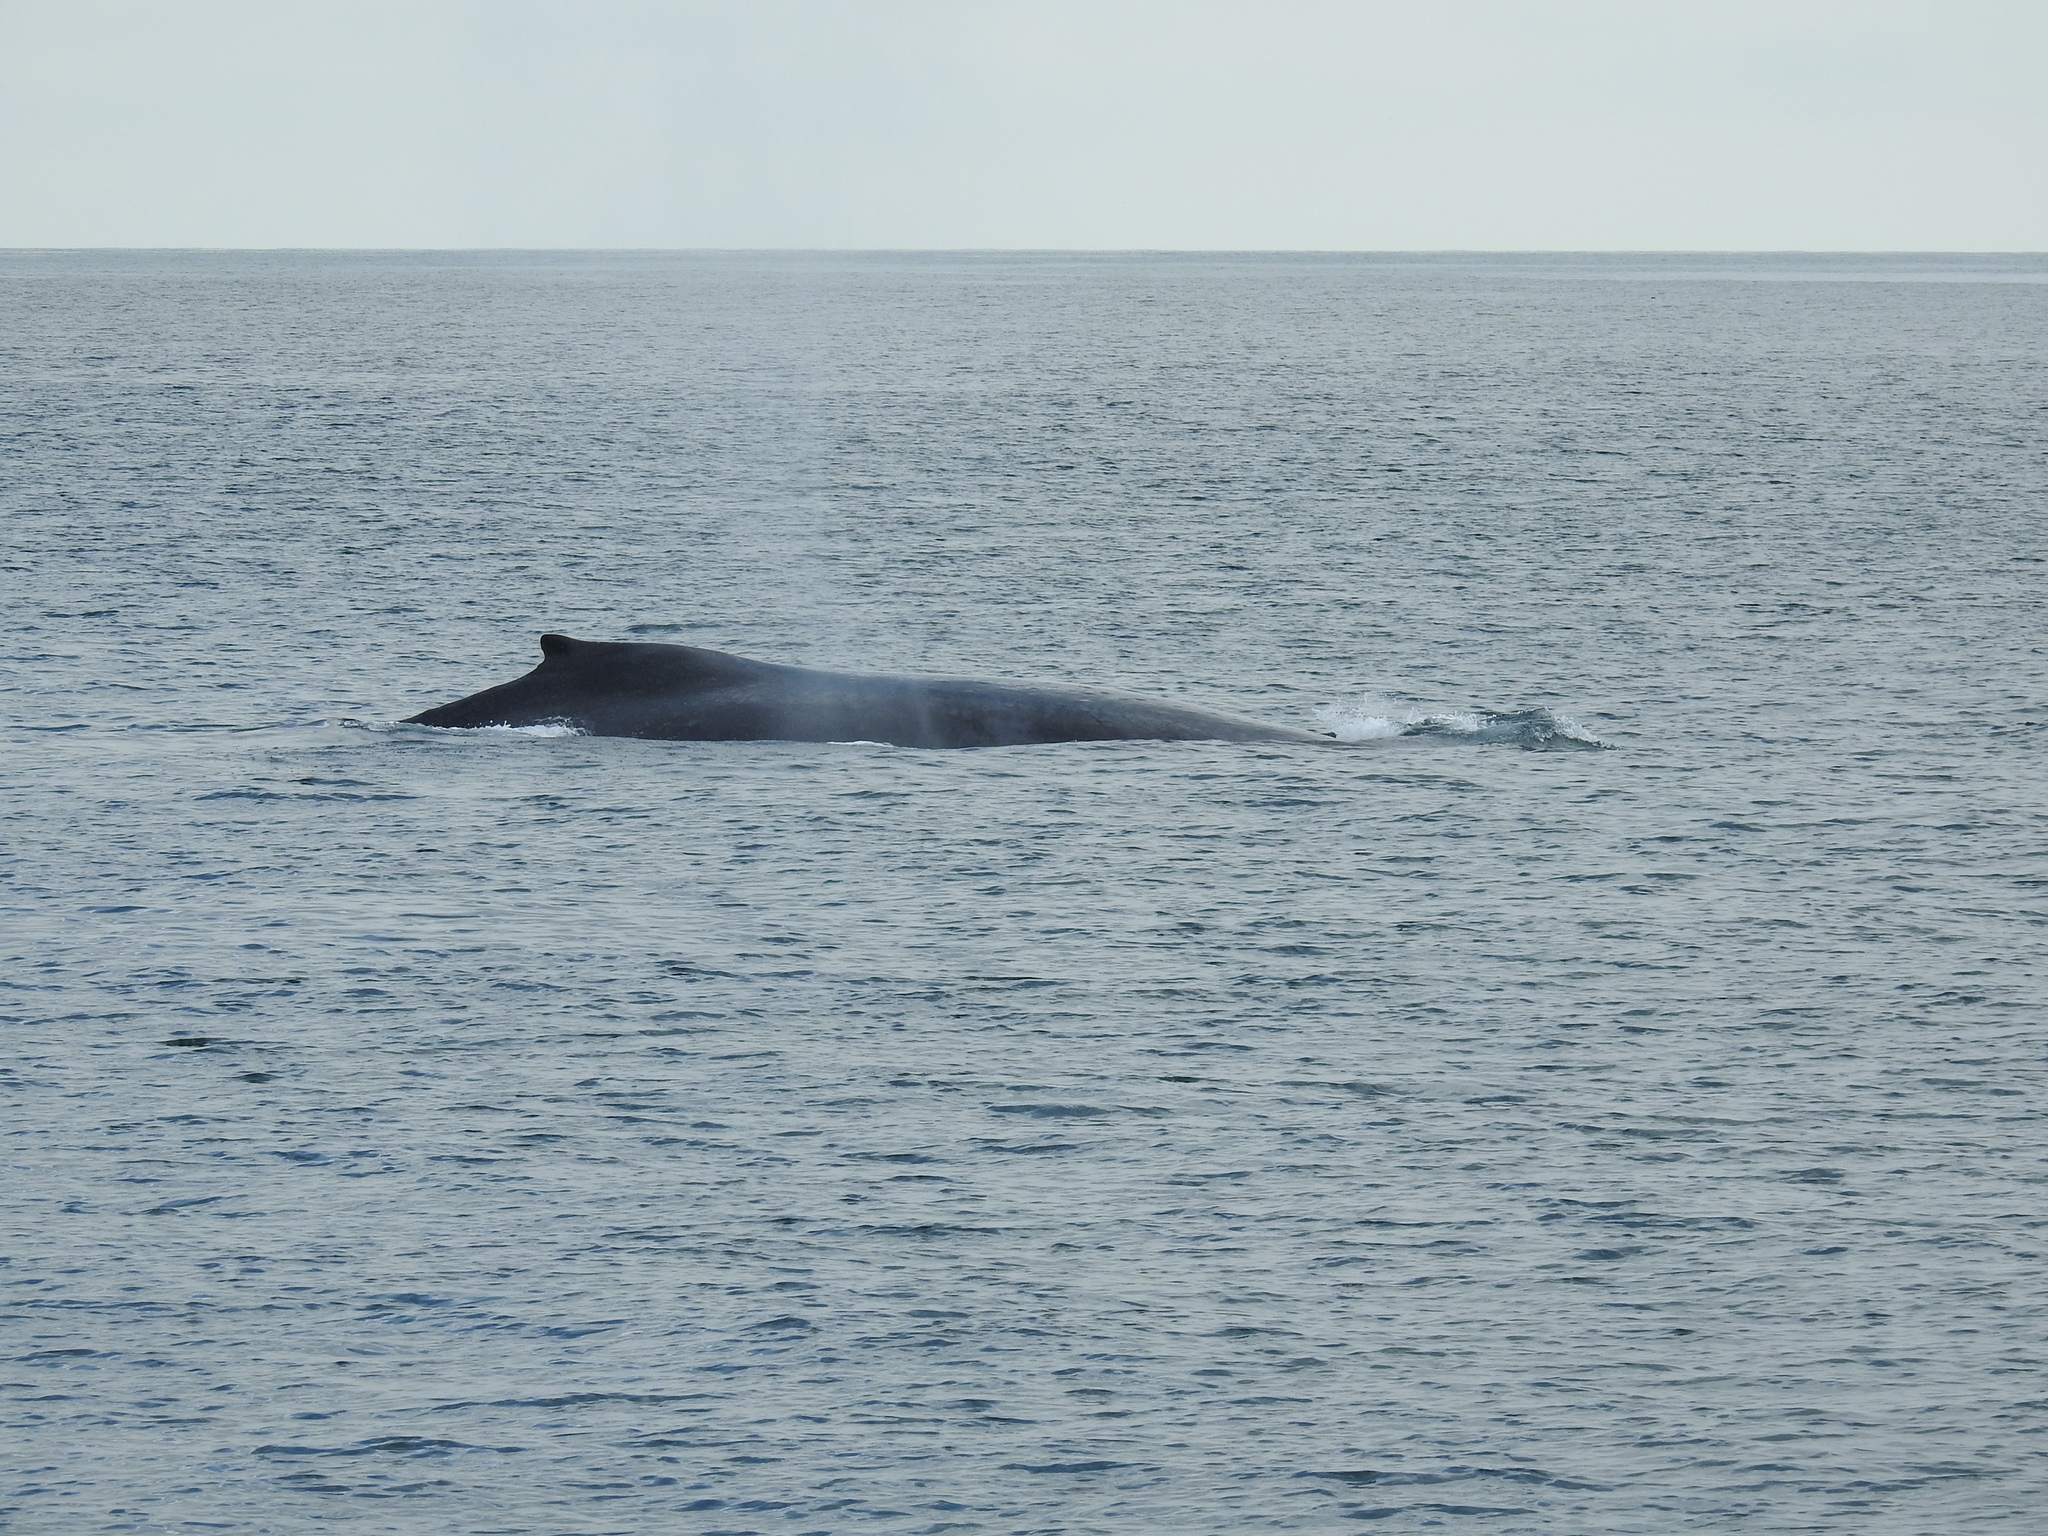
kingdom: Animalia
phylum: Chordata
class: Mammalia
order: Cetacea
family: Balaenopteridae
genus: Megaptera
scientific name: Megaptera novaeangliae
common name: Humpback whale
